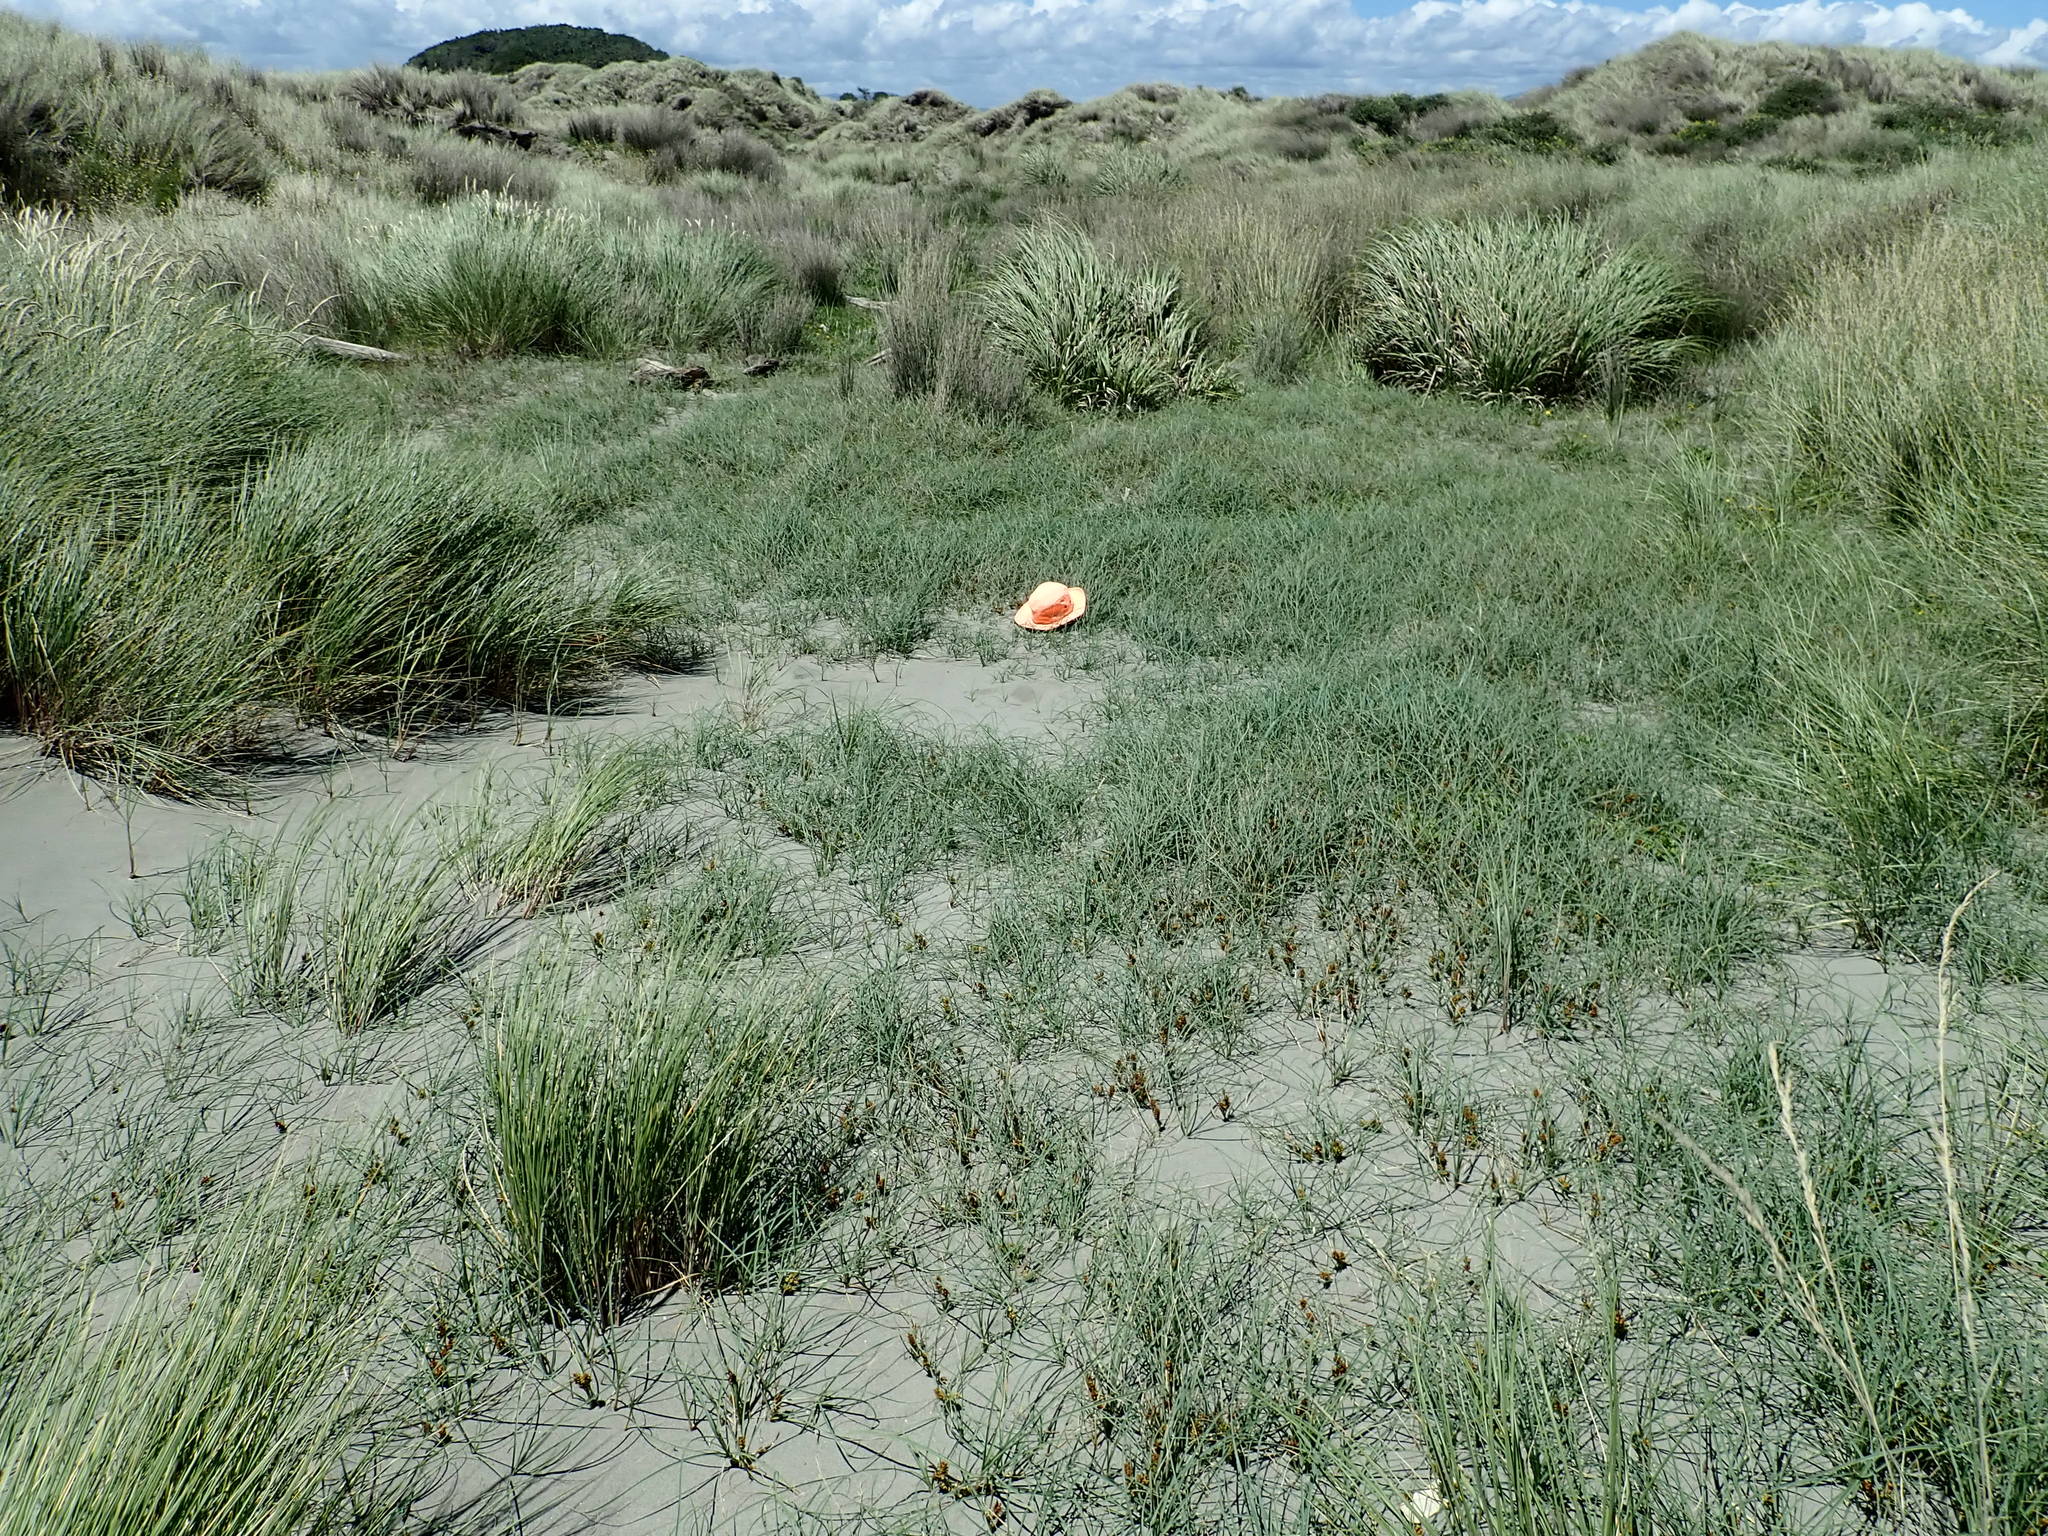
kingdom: Plantae
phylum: Tracheophyta
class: Liliopsida
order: Poales
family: Cyperaceae
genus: Carex
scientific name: Carex pumila
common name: Dwarf sedge
